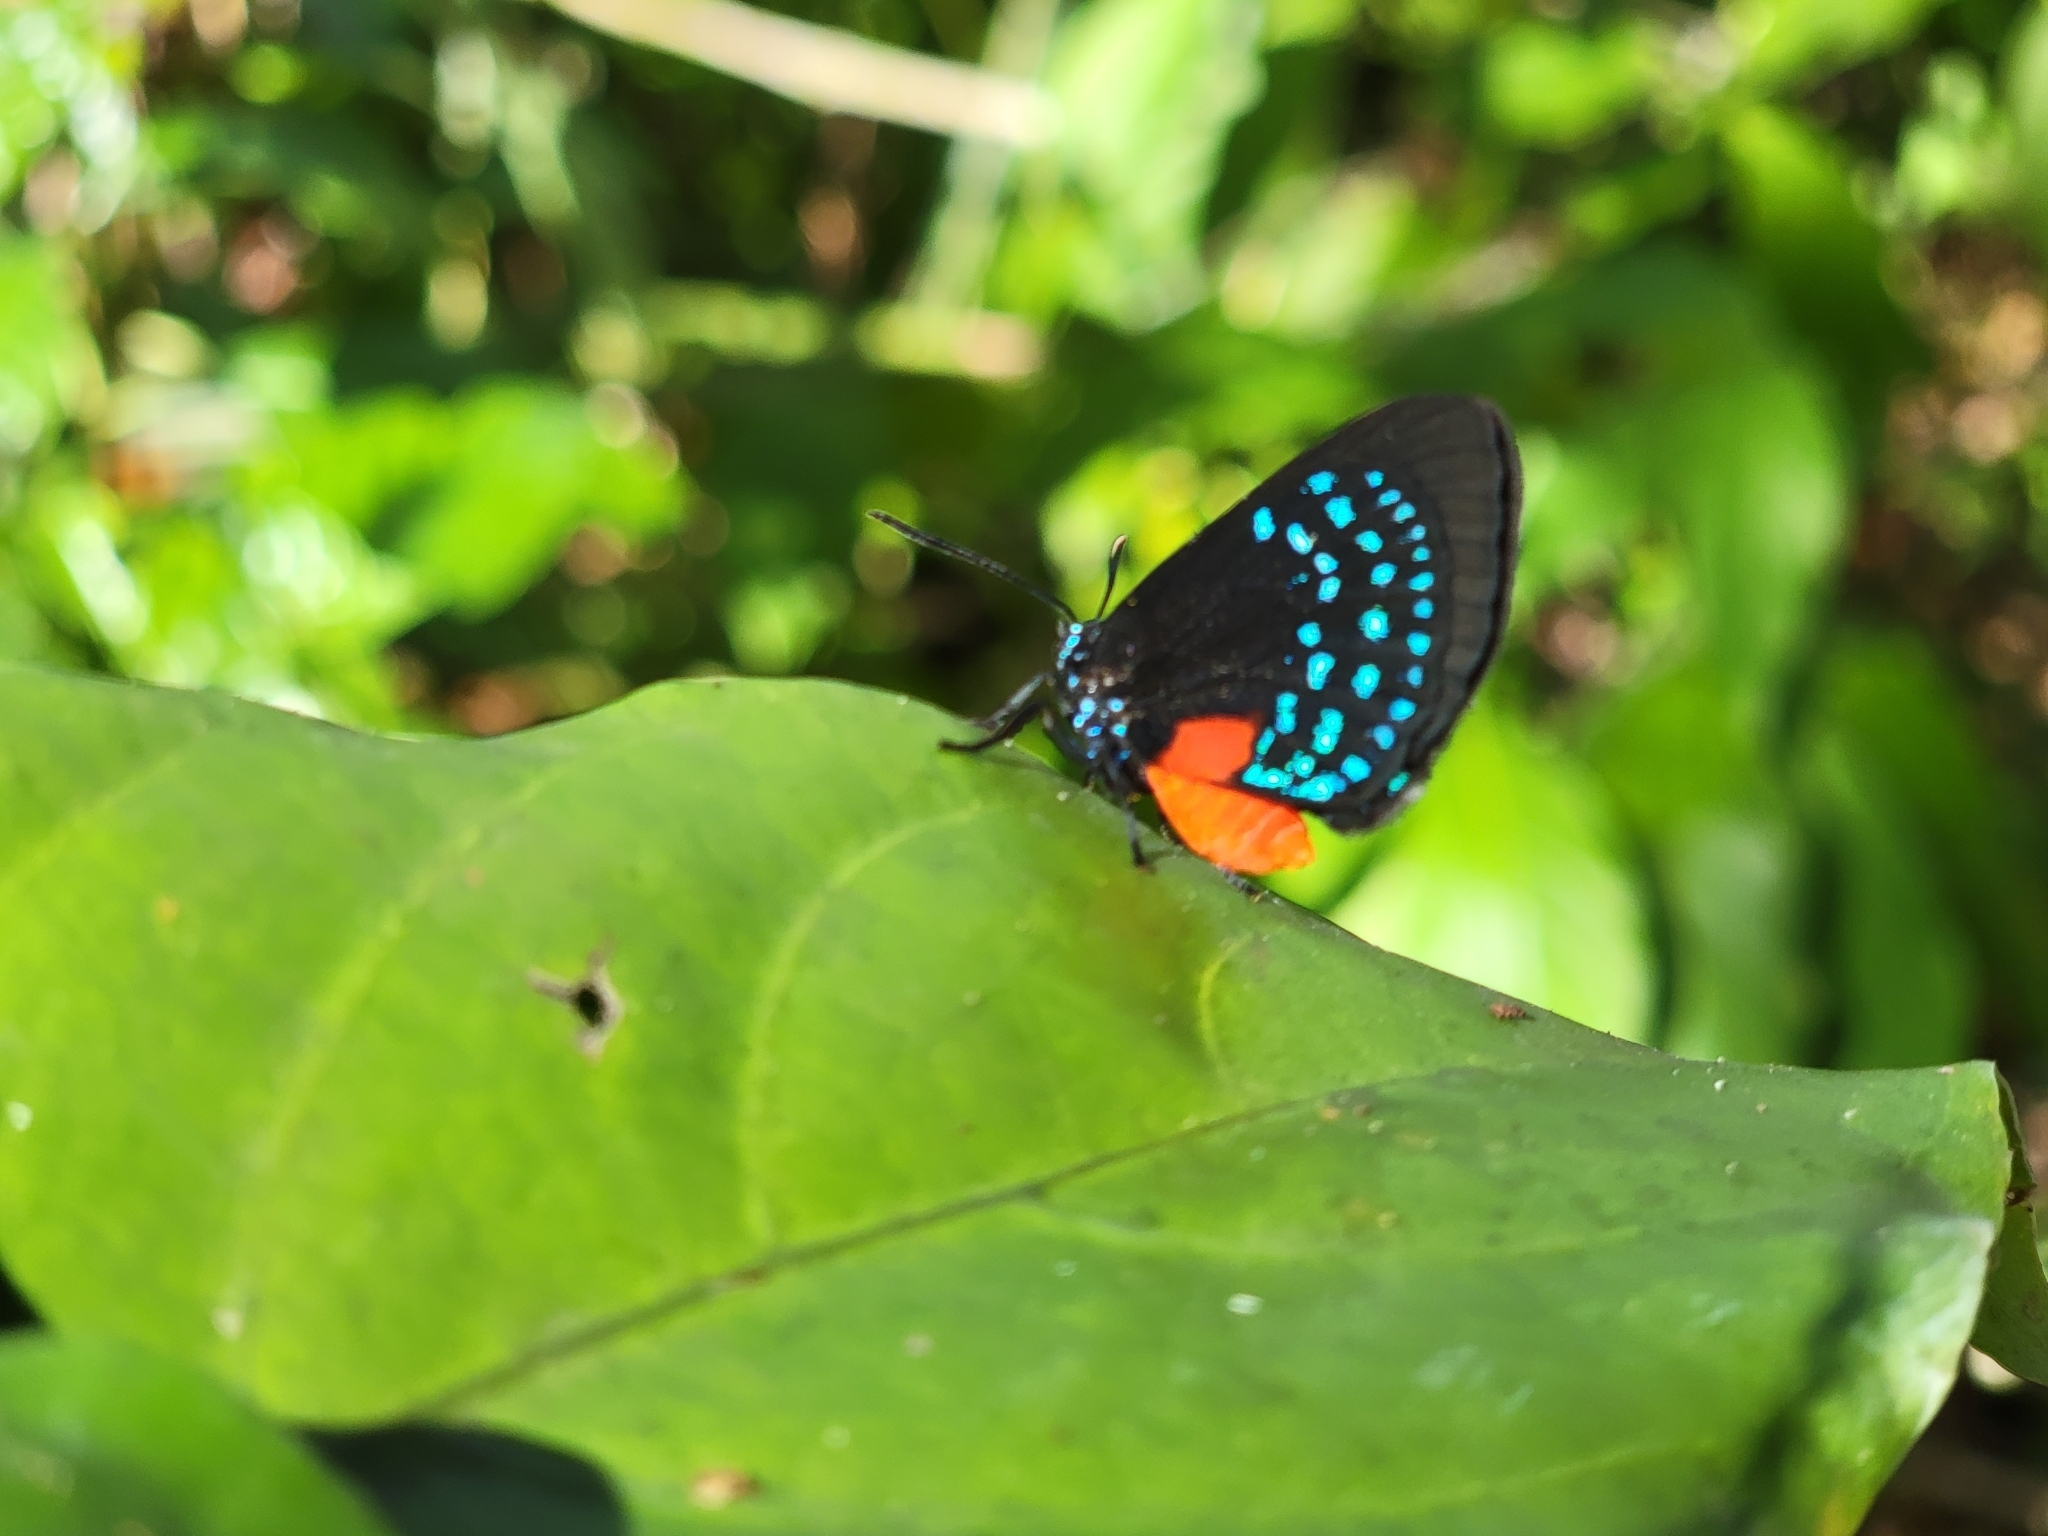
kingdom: Animalia
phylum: Arthropoda
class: Insecta
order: Lepidoptera
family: Lycaenidae
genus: Eumaeus
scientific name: Eumaeus atala
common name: Atala
